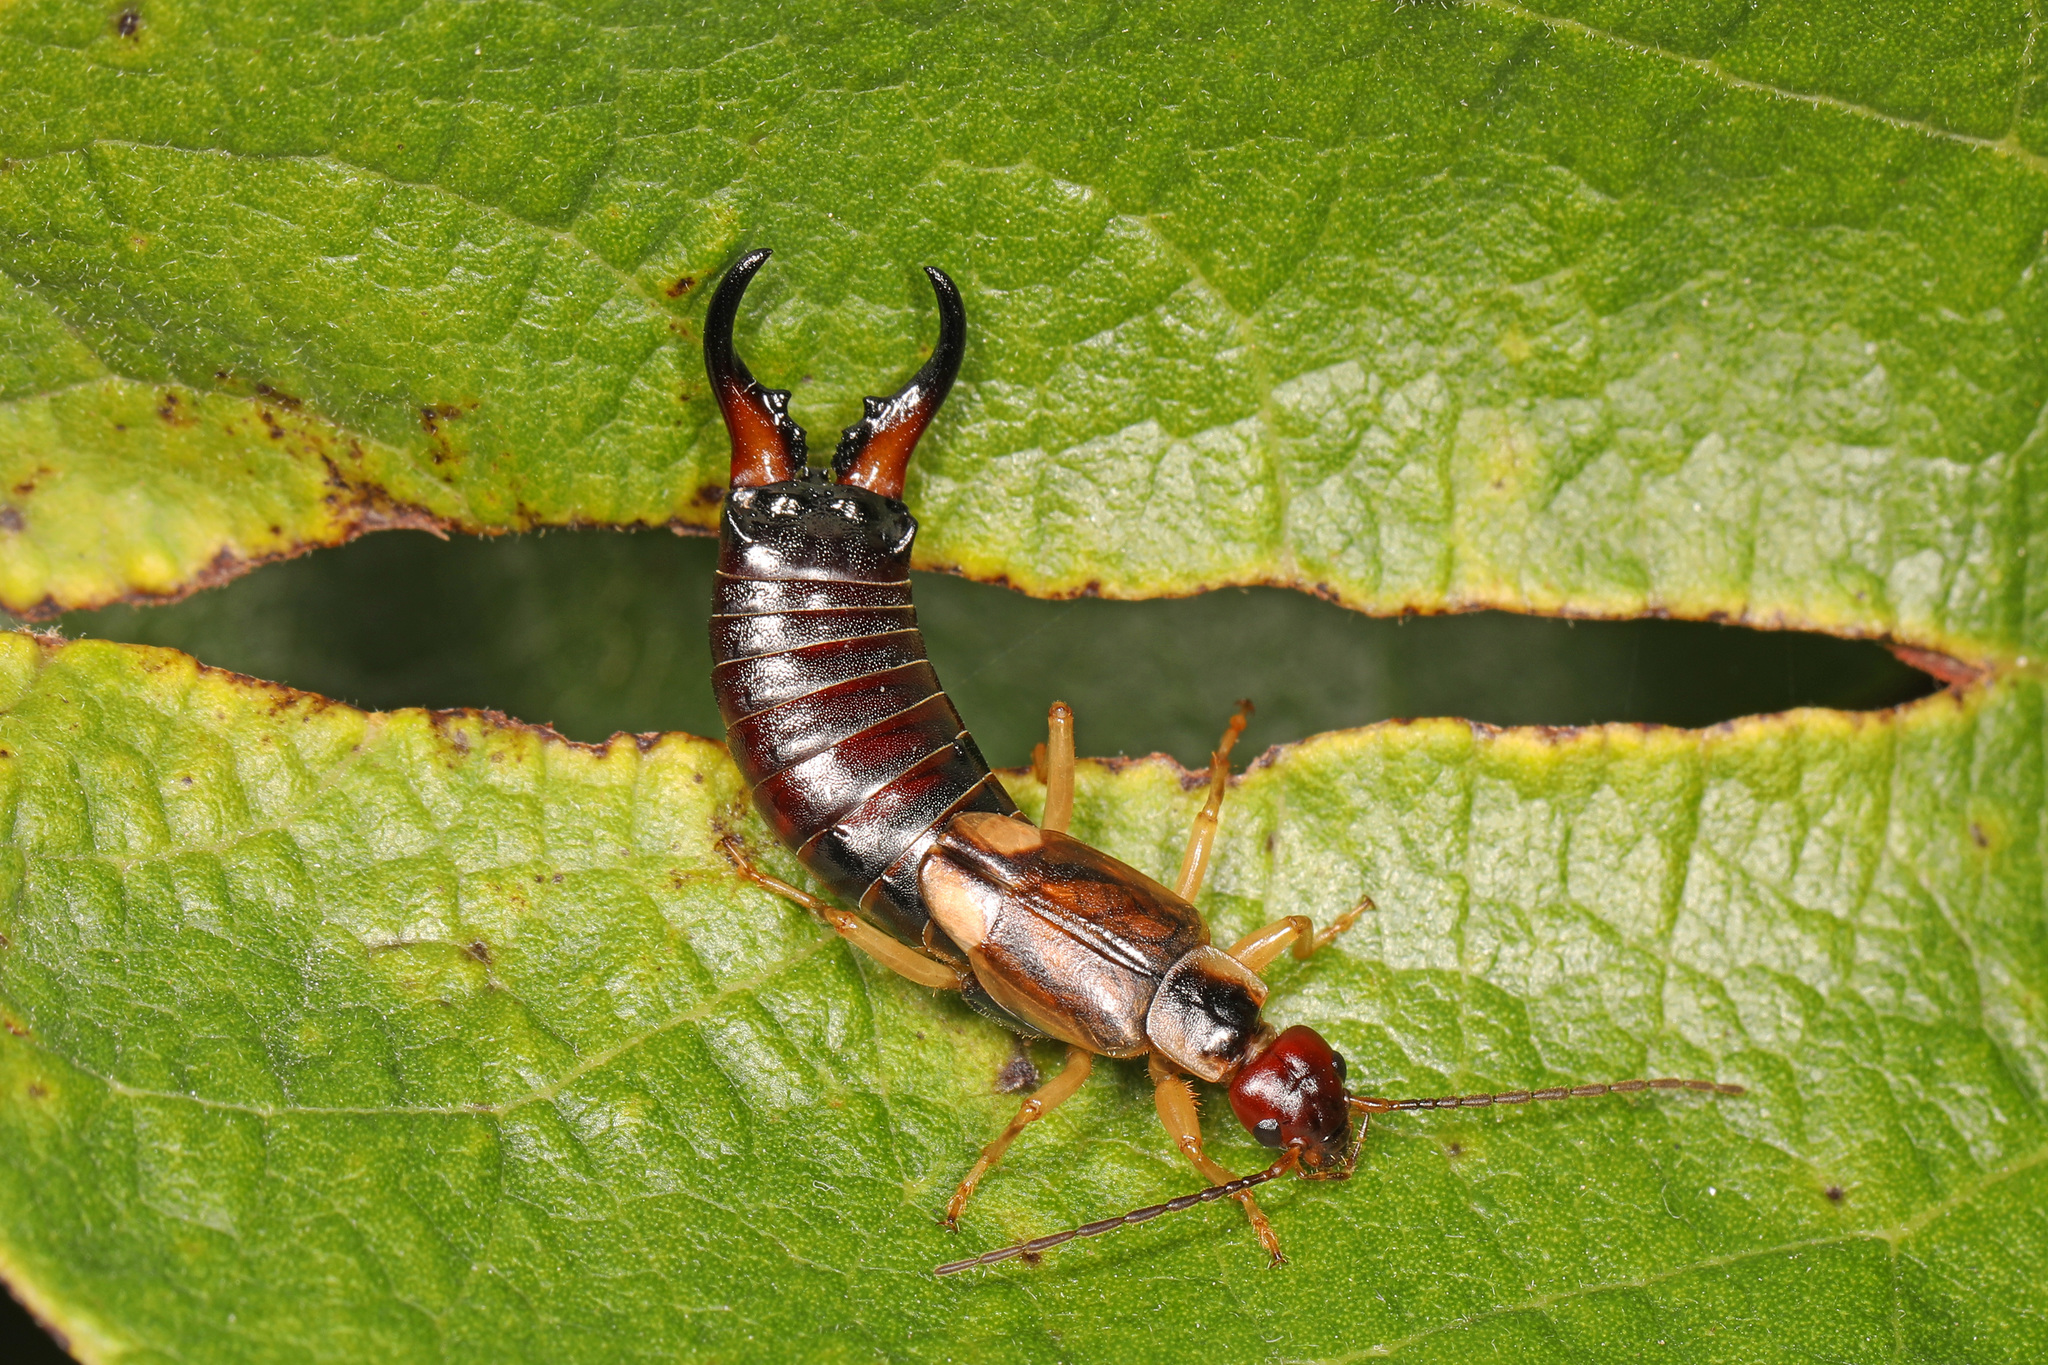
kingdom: Animalia
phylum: Arthropoda
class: Insecta
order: Dermaptera
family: Forficulidae
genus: Forficula
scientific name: Forficula
